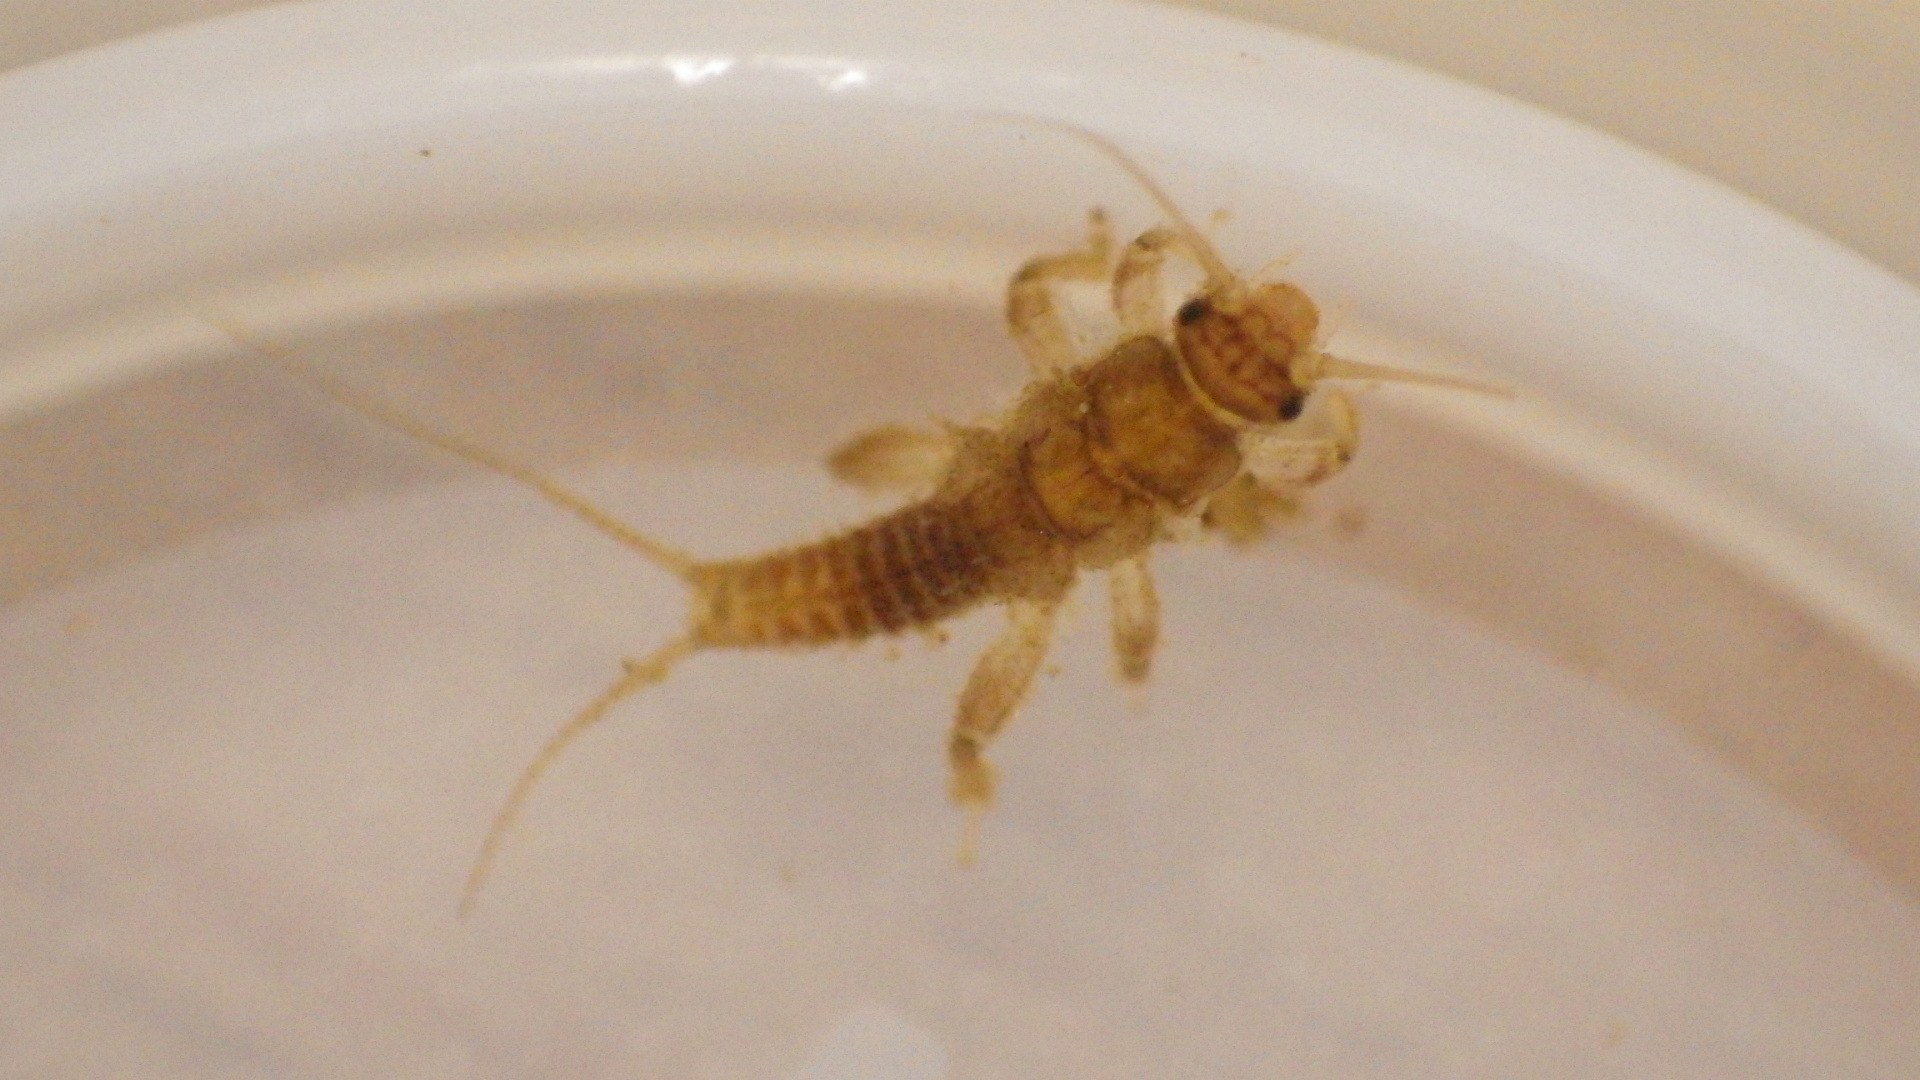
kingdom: Animalia
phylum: Arthropoda
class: Insecta
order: Plecoptera
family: Nemouridae
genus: Soyedina
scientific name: Soyedina
